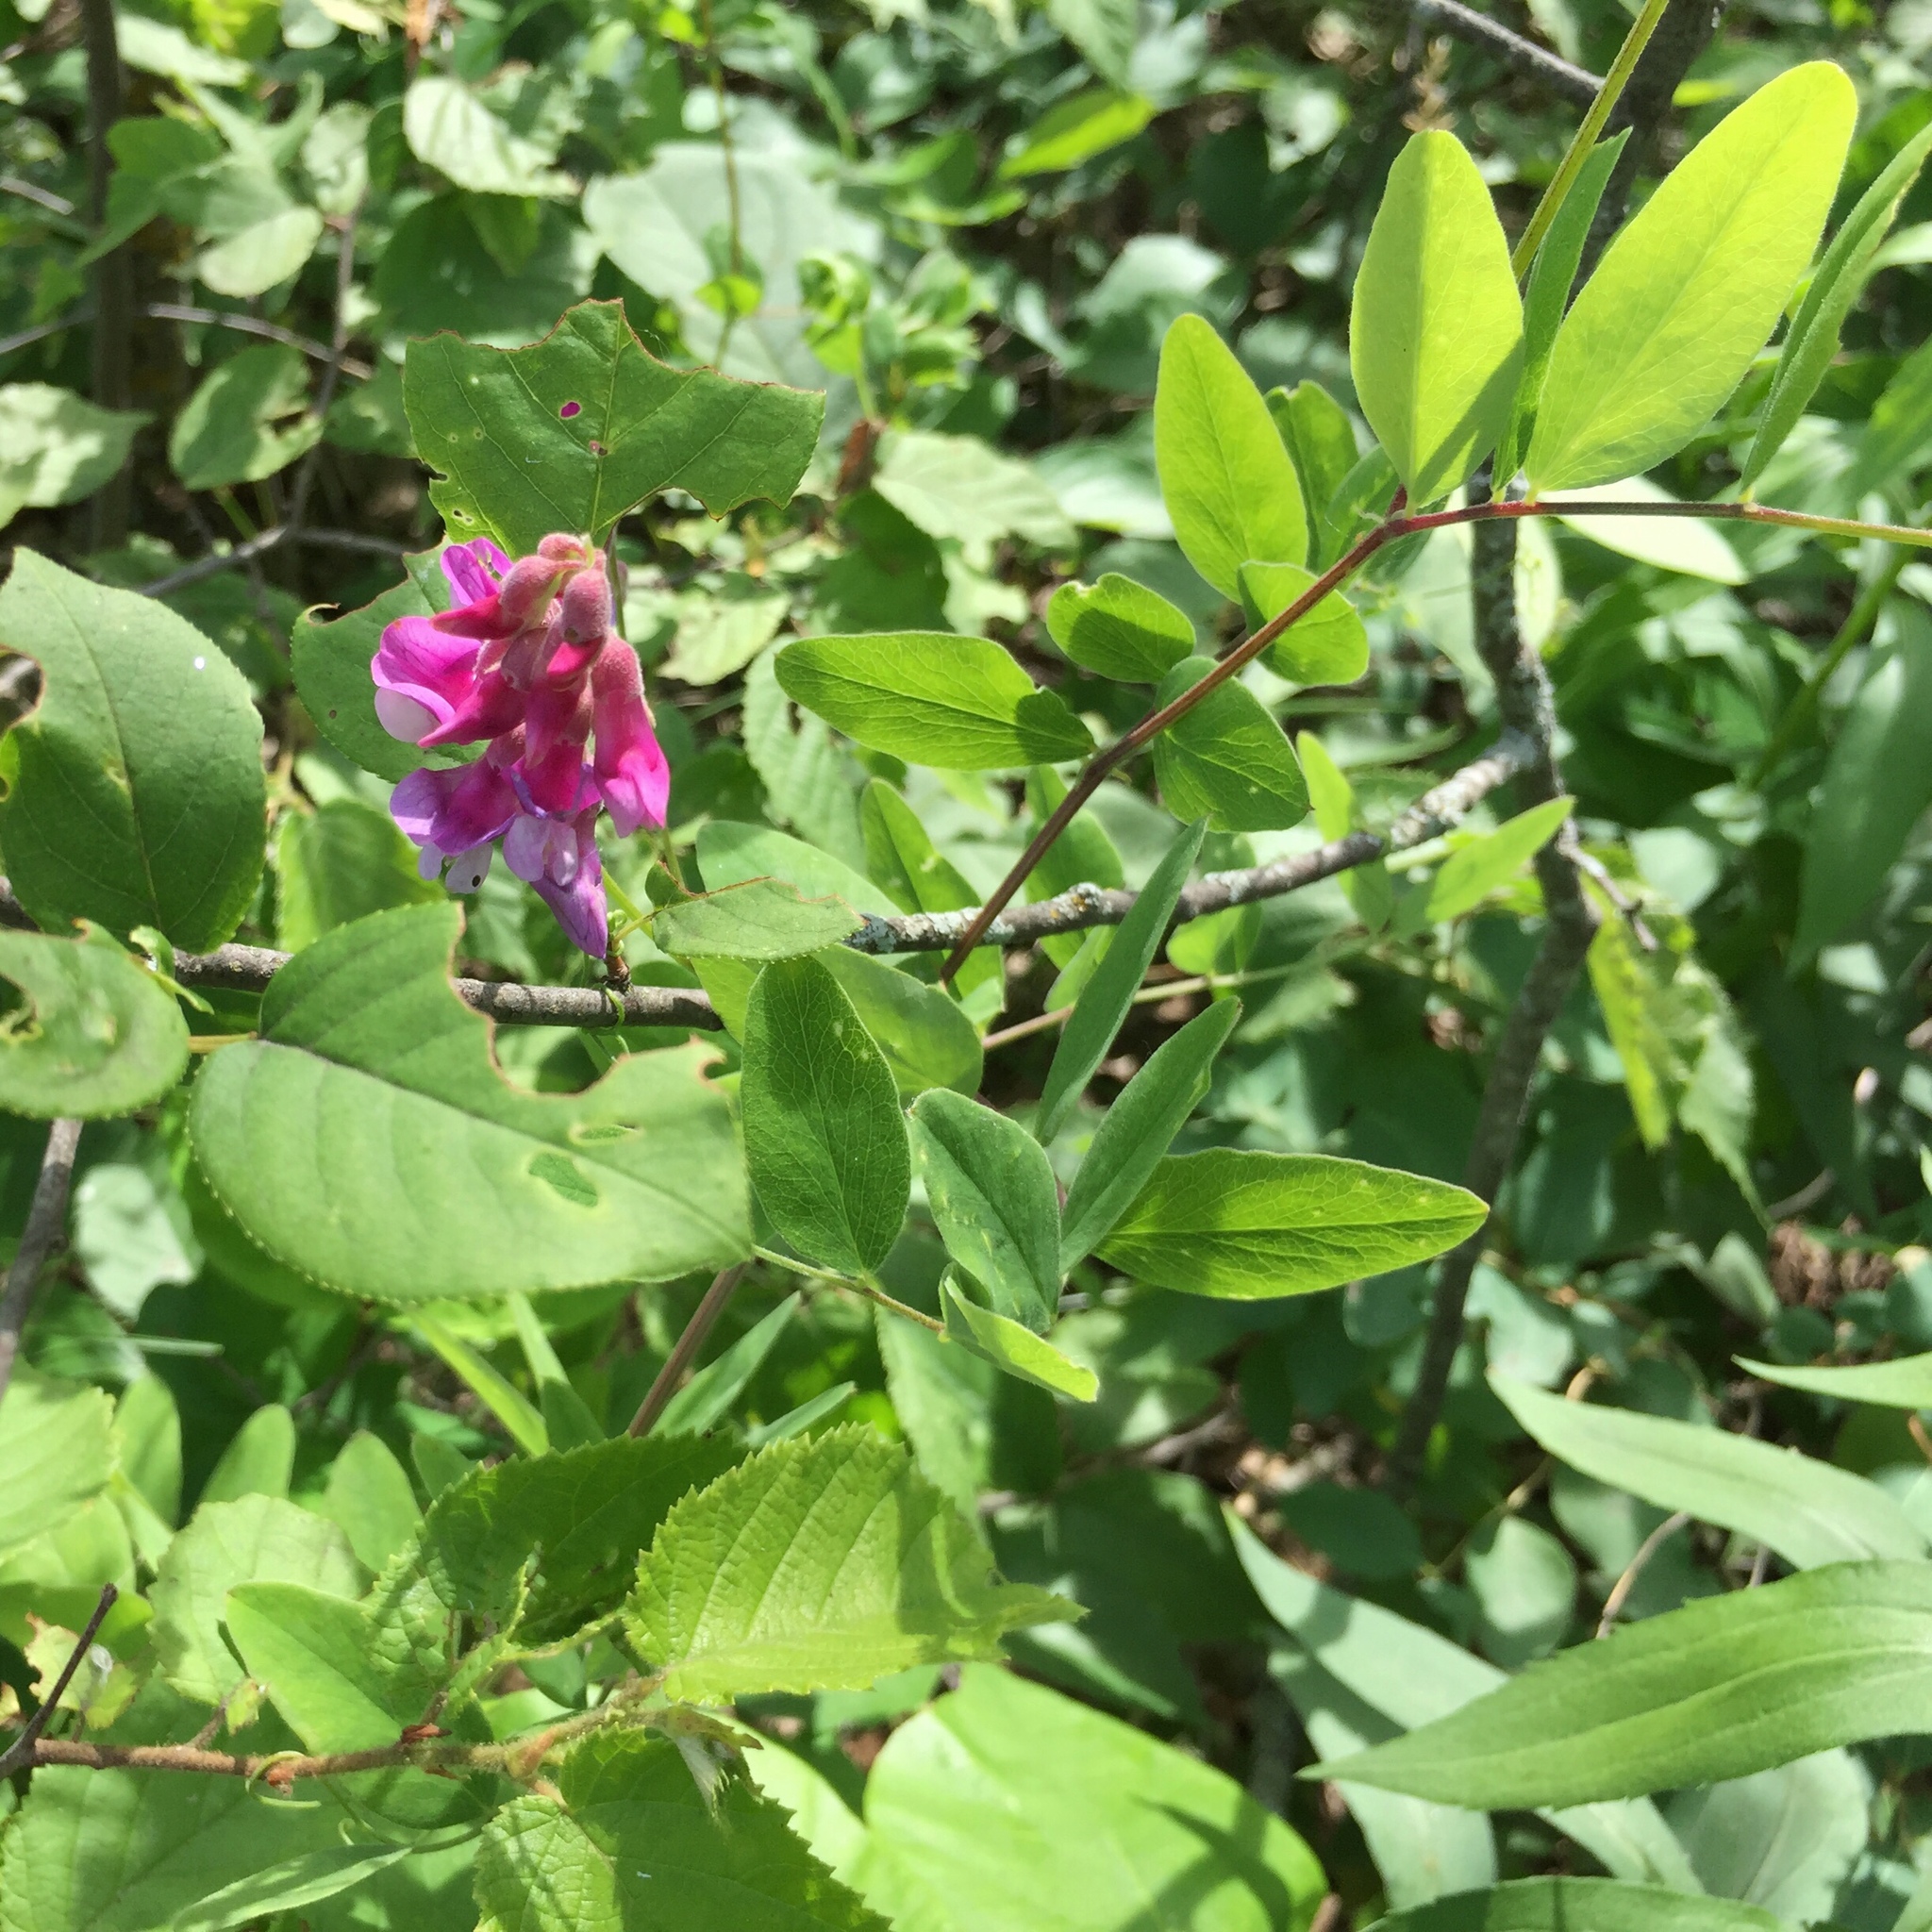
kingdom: Plantae
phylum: Tracheophyta
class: Magnoliopsida
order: Fabales
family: Fabaceae
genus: Lathyrus
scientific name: Lathyrus venosus
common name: Forest-pea
